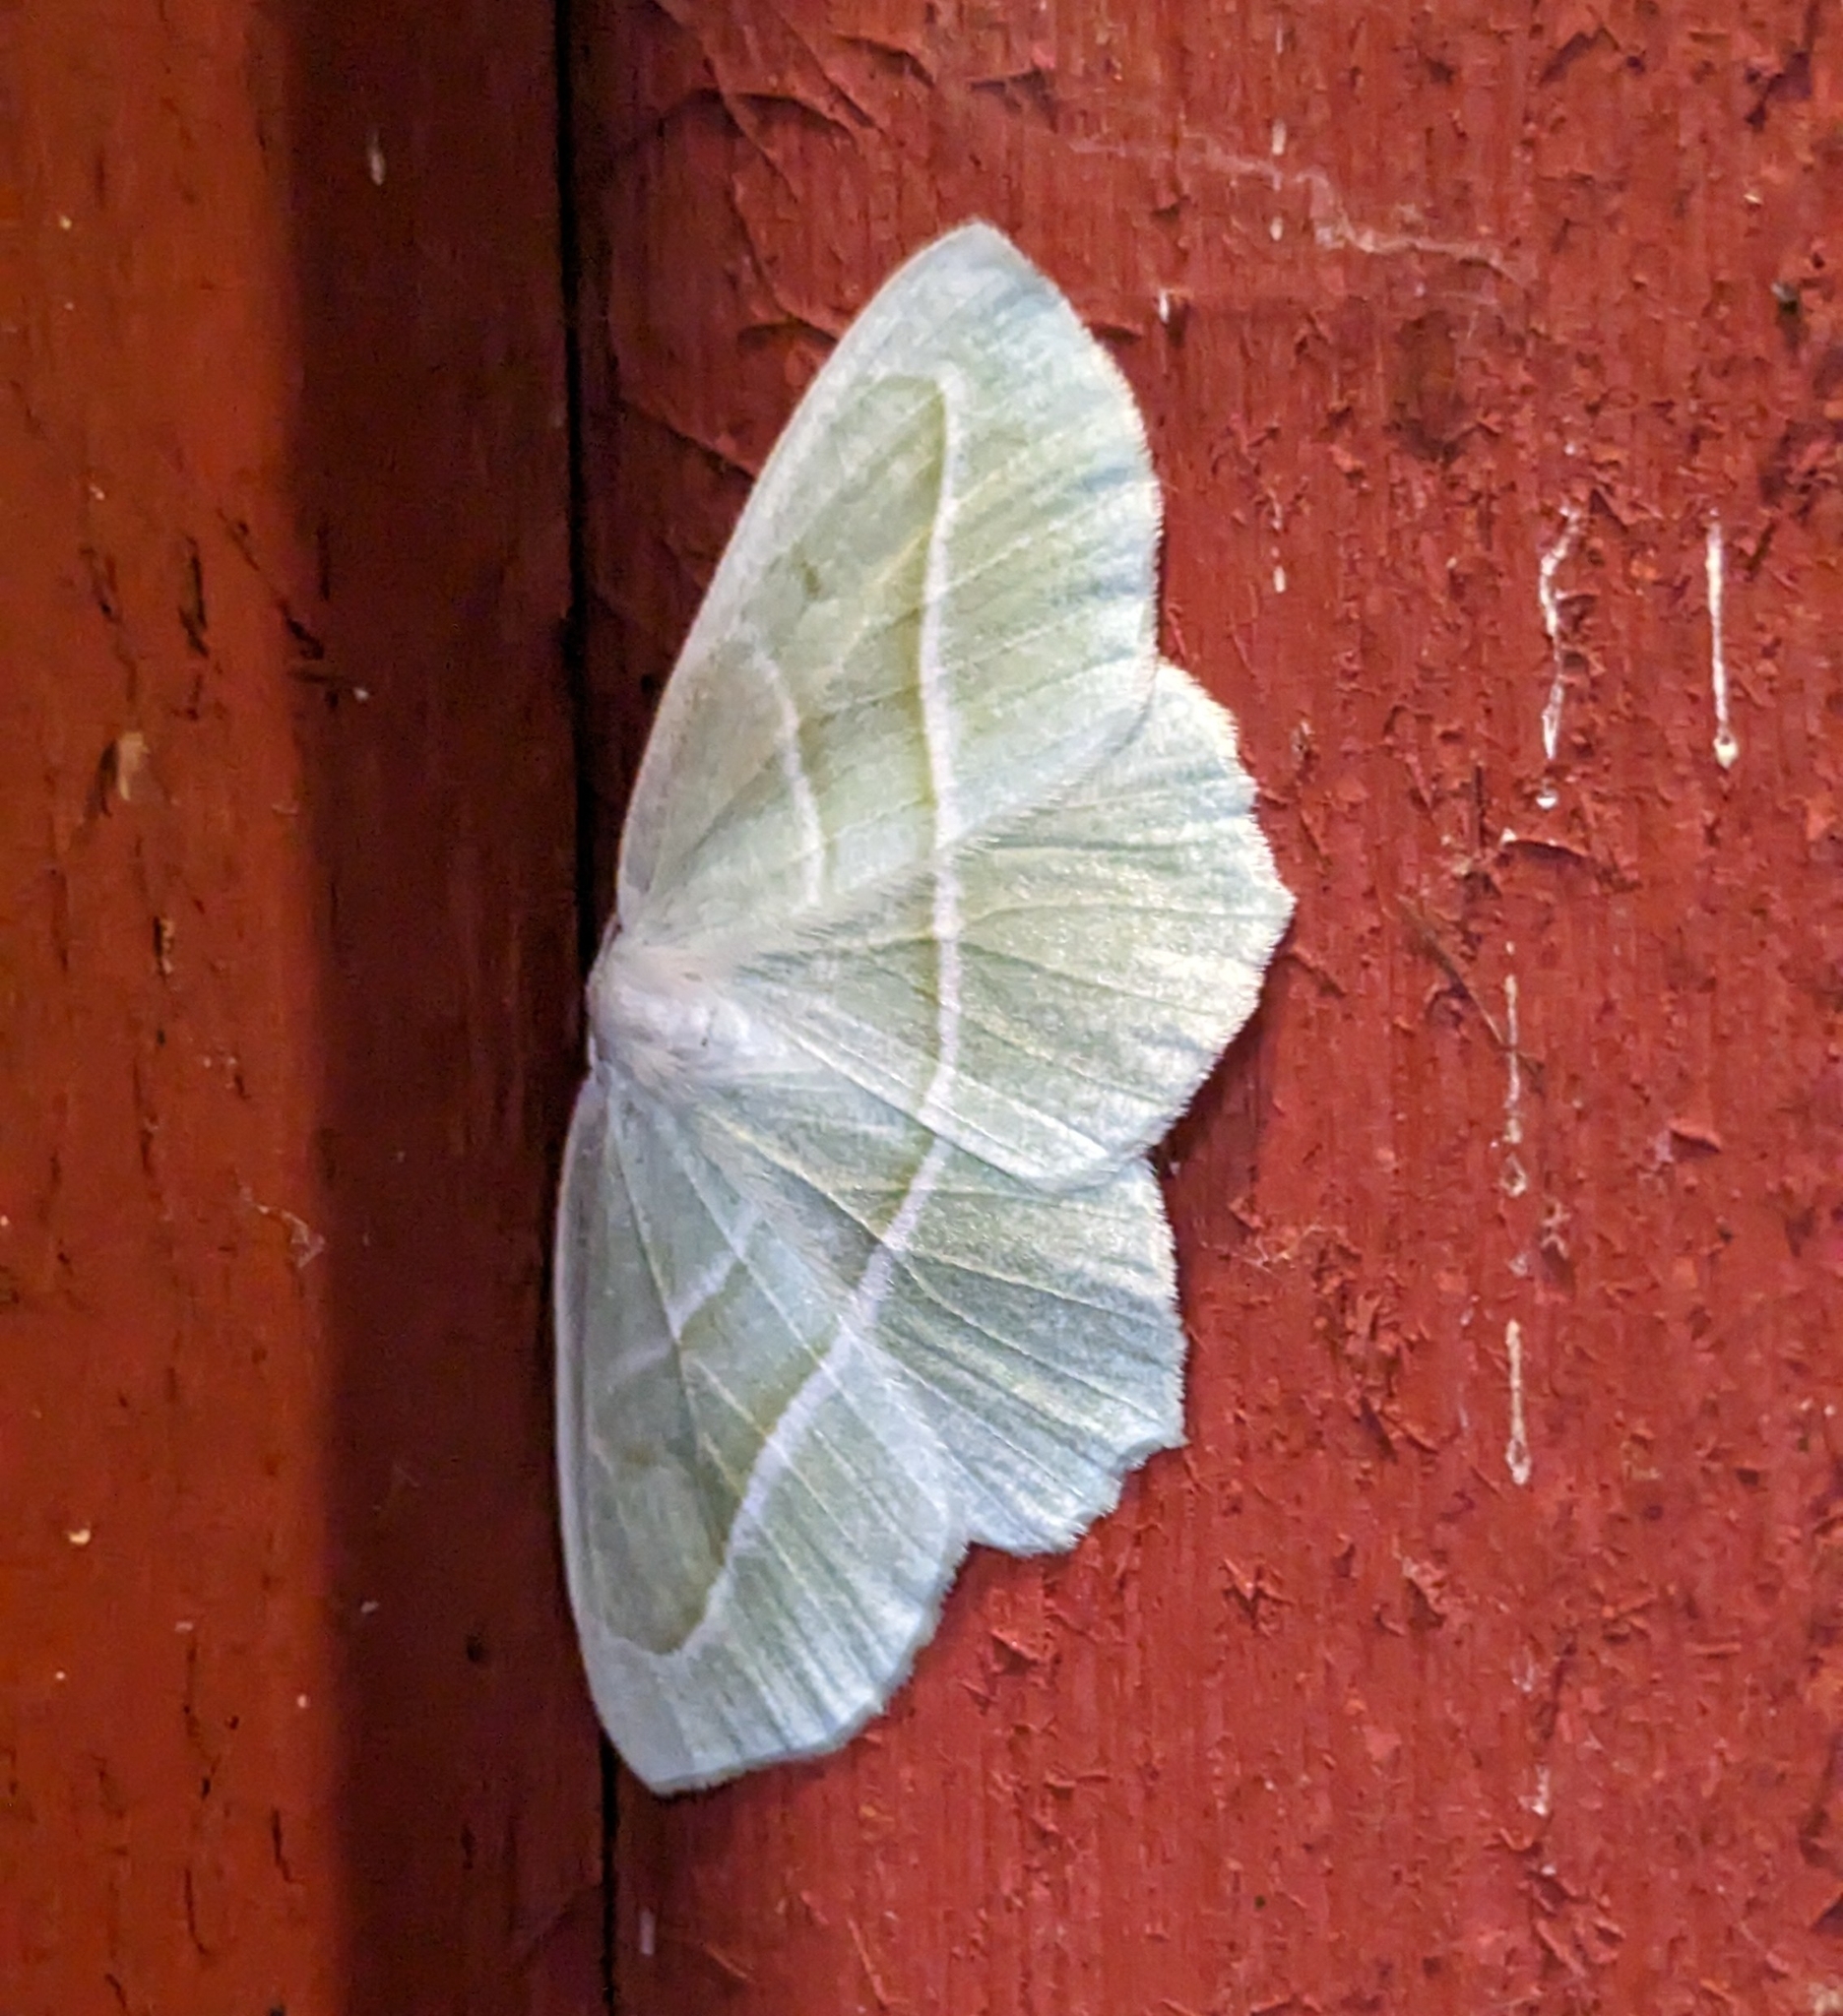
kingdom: Animalia
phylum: Arthropoda
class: Insecta
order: Lepidoptera
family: Geometridae
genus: Campaea
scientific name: Campaea perlata
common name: Fringed looper
